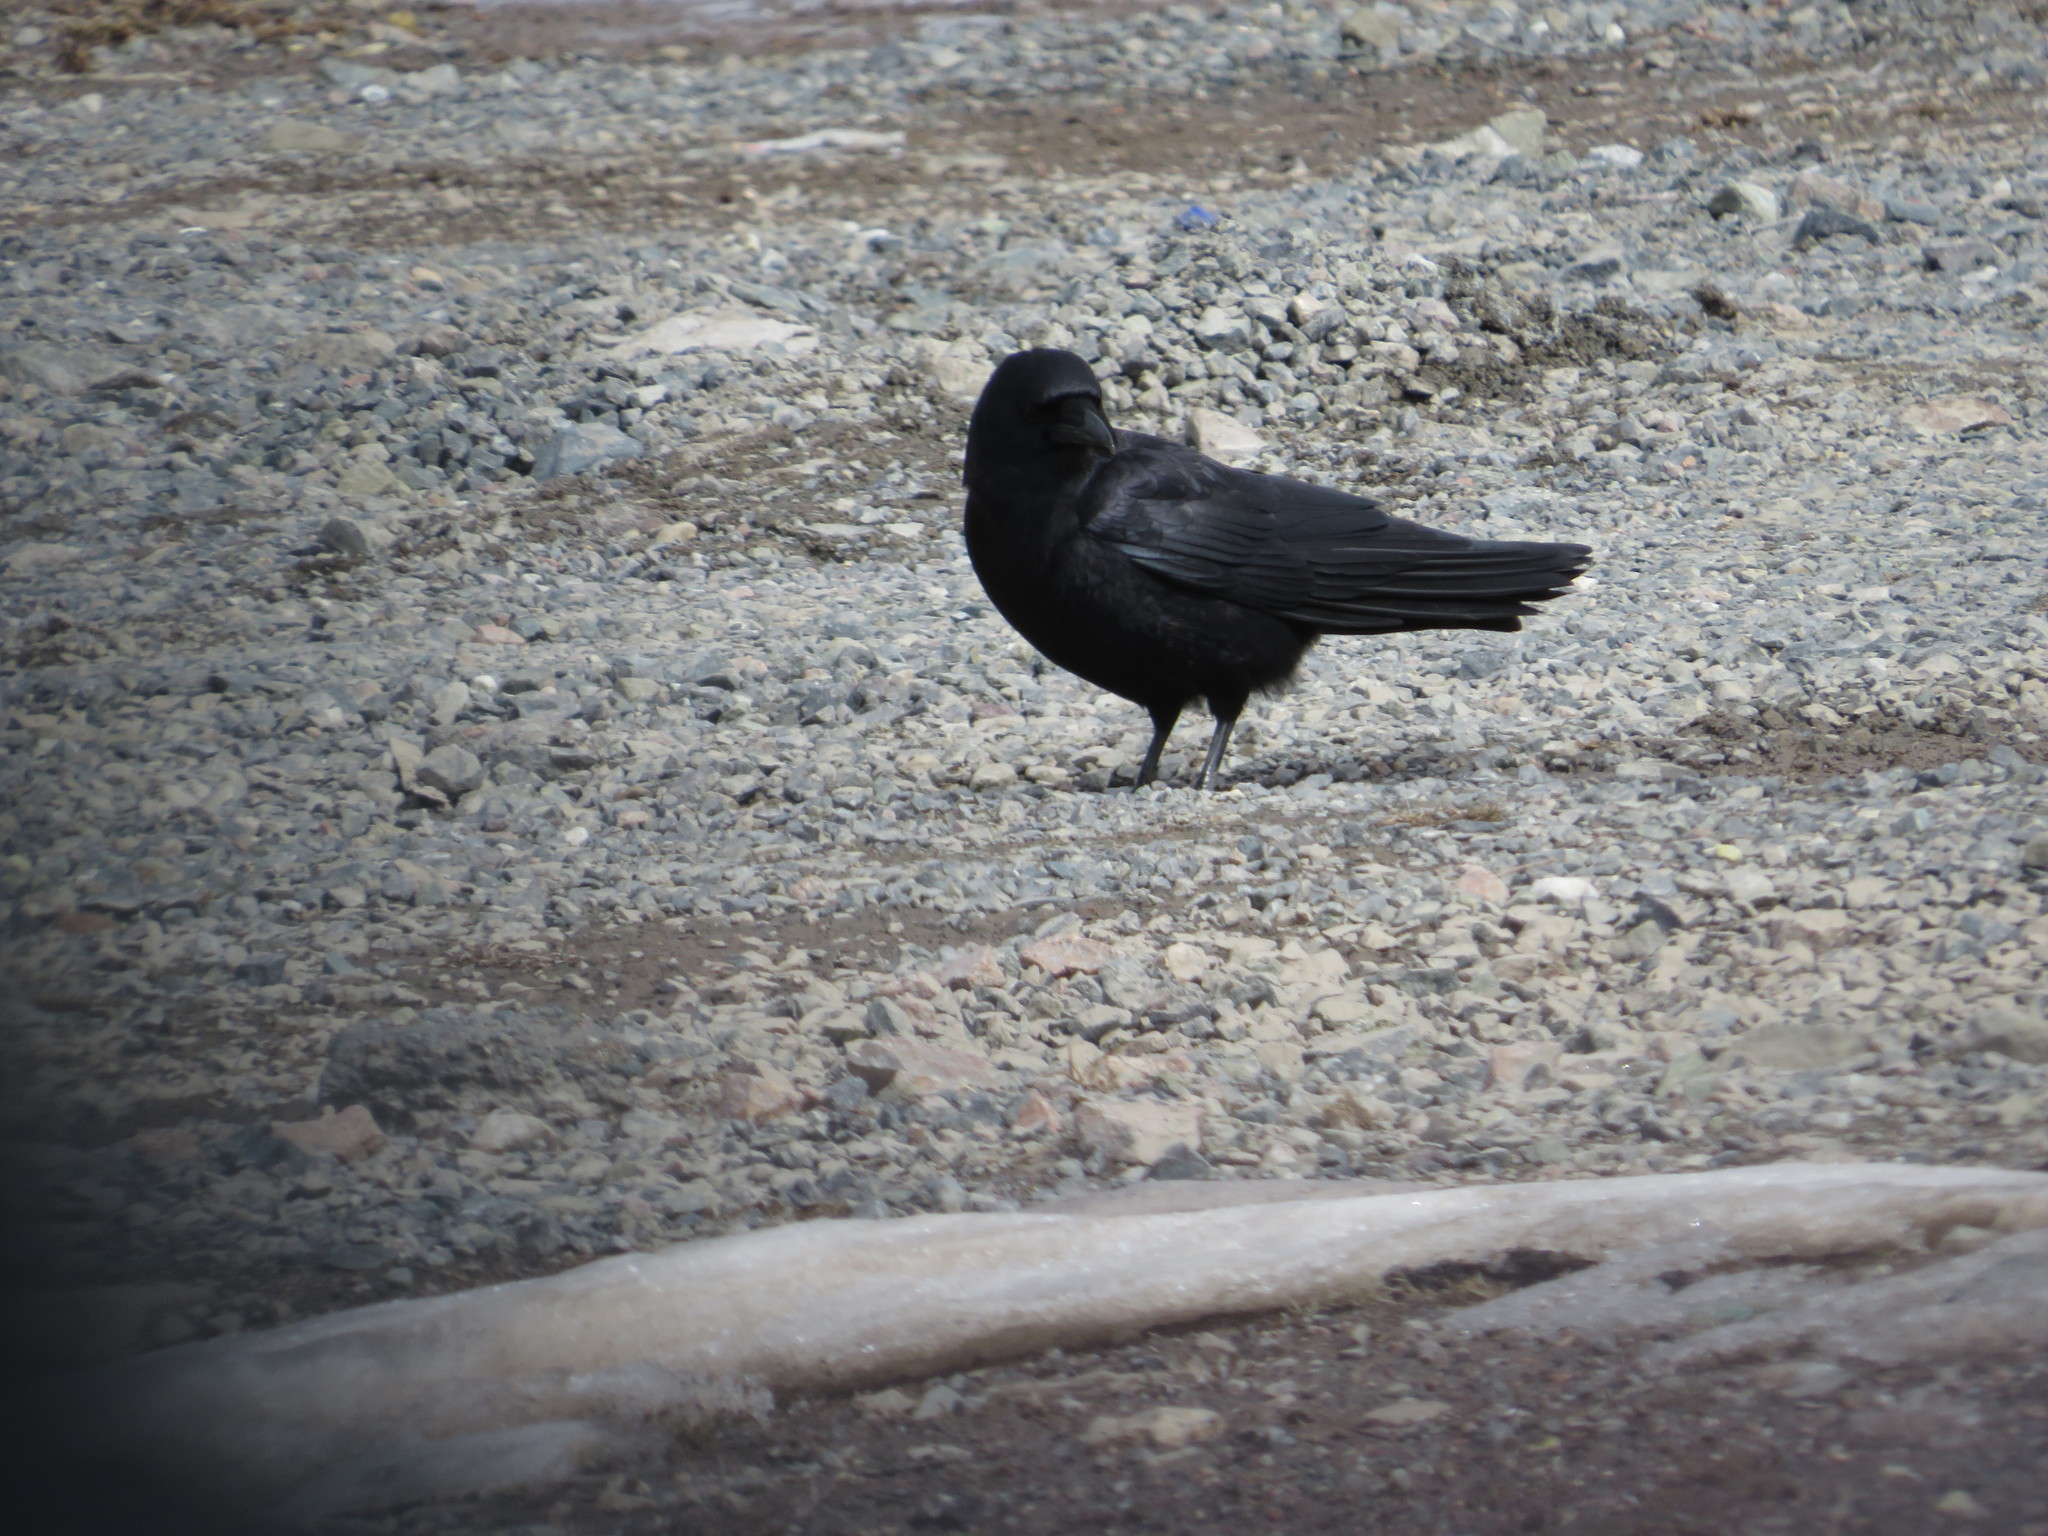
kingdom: Animalia
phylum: Chordata
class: Aves
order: Passeriformes
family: Corvidae
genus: Corvus
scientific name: Corvus brachyrhynchos
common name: American crow
